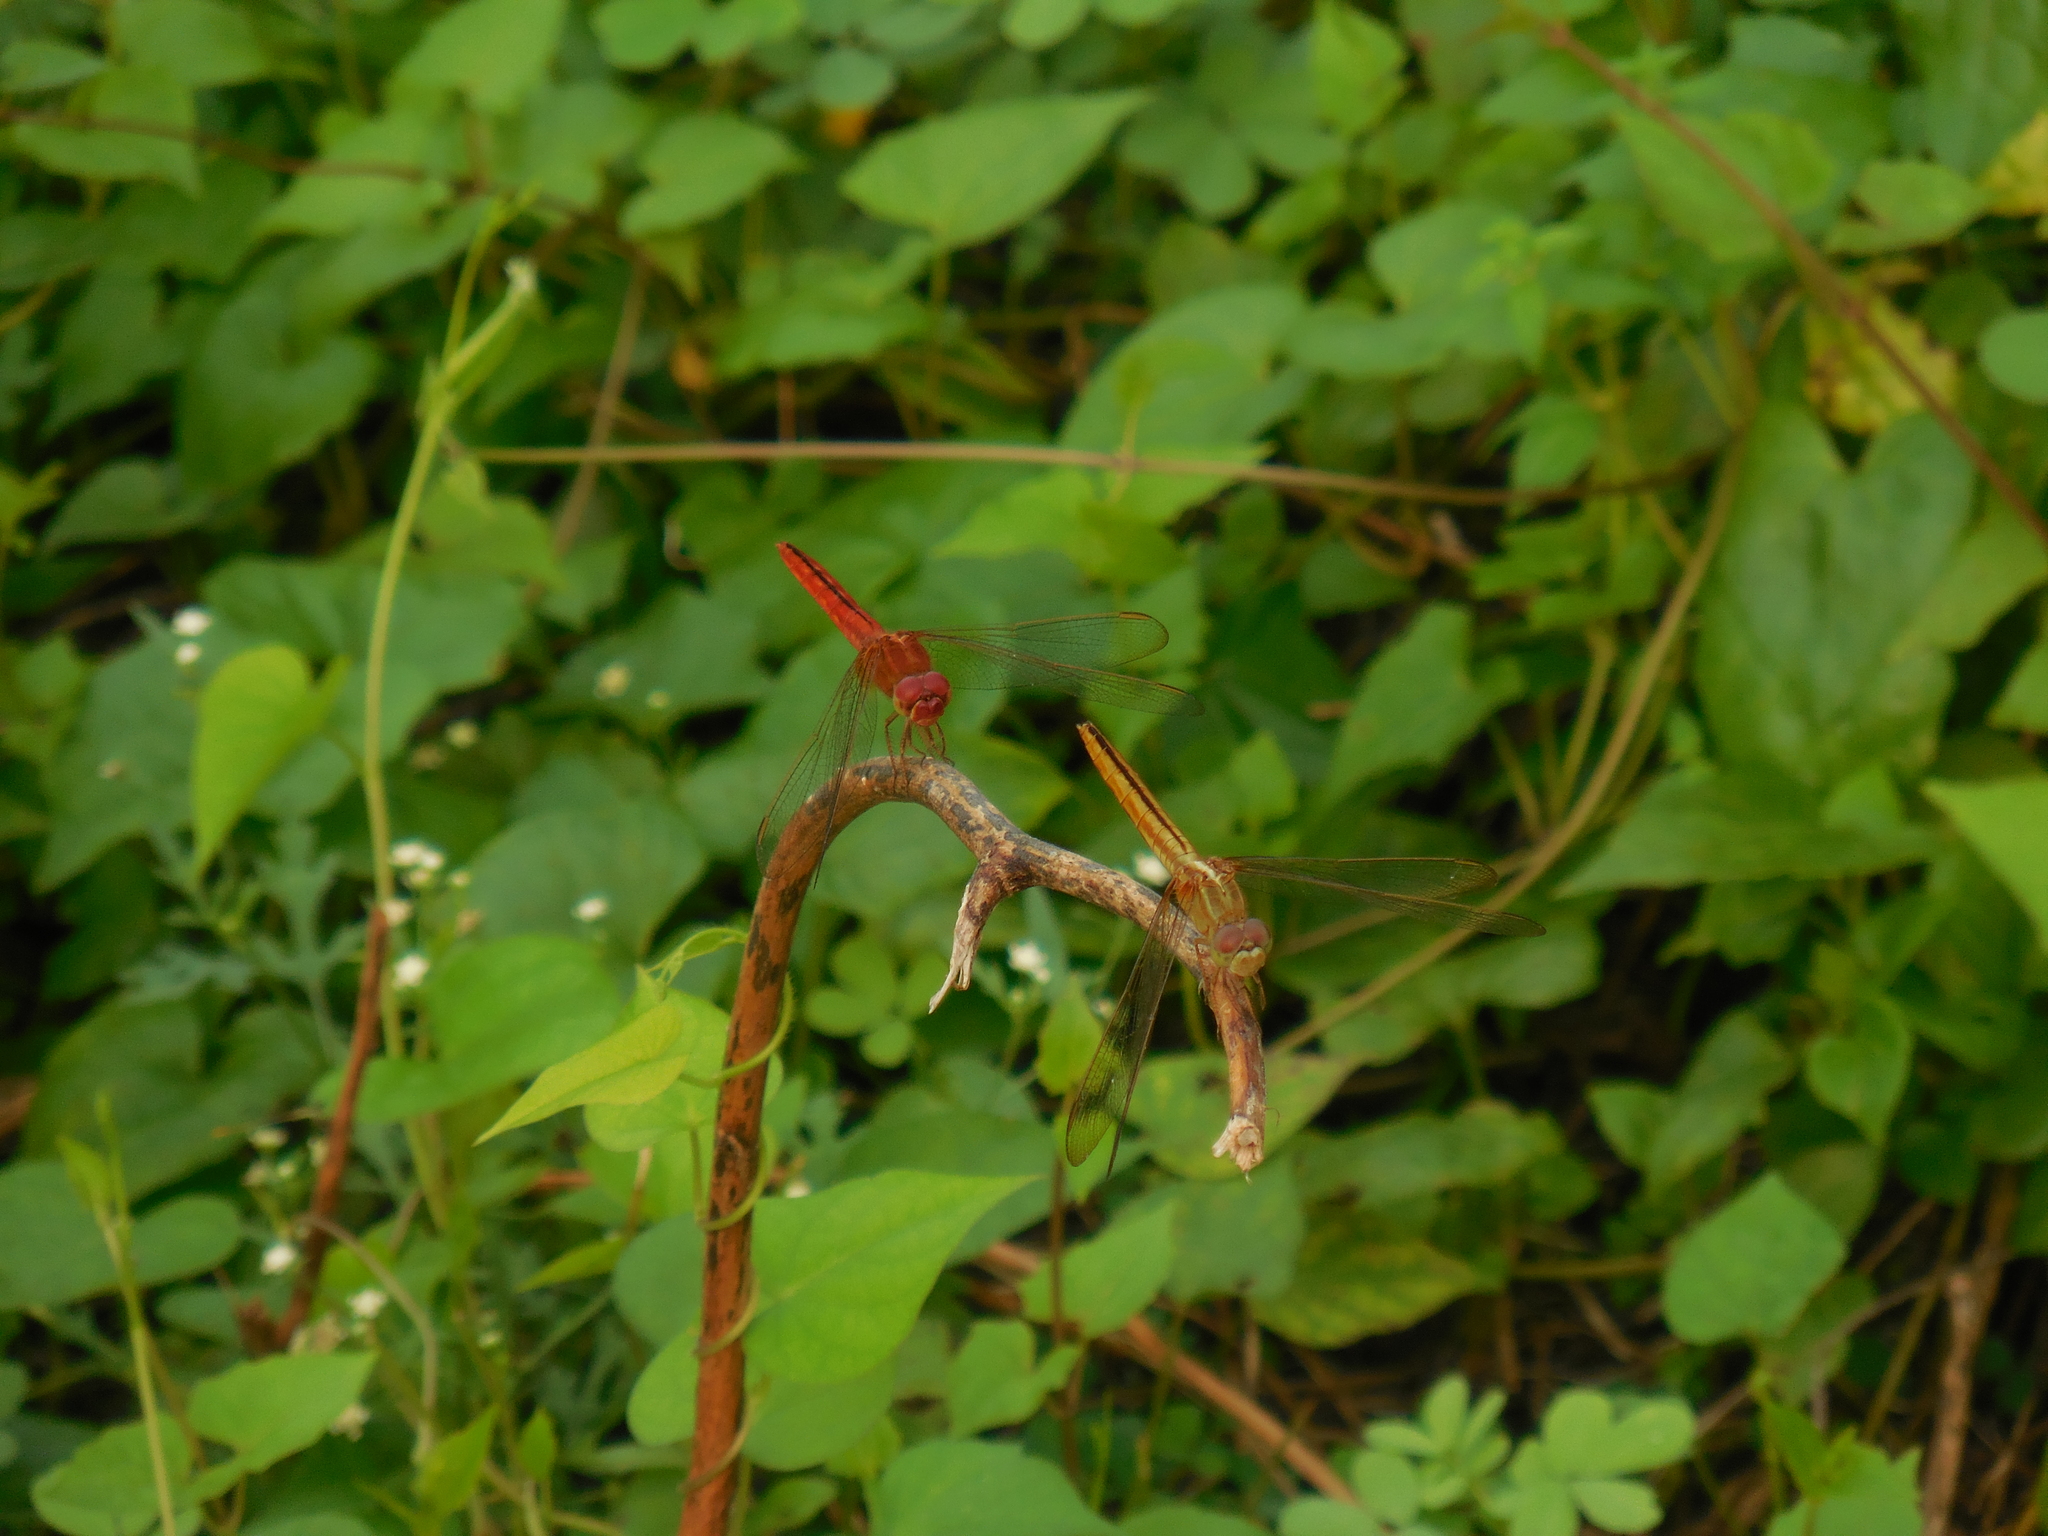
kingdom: Animalia
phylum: Arthropoda
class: Insecta
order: Odonata
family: Libellulidae
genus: Crocothemis
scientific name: Crocothemis servilia
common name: Scarlet skimmer
